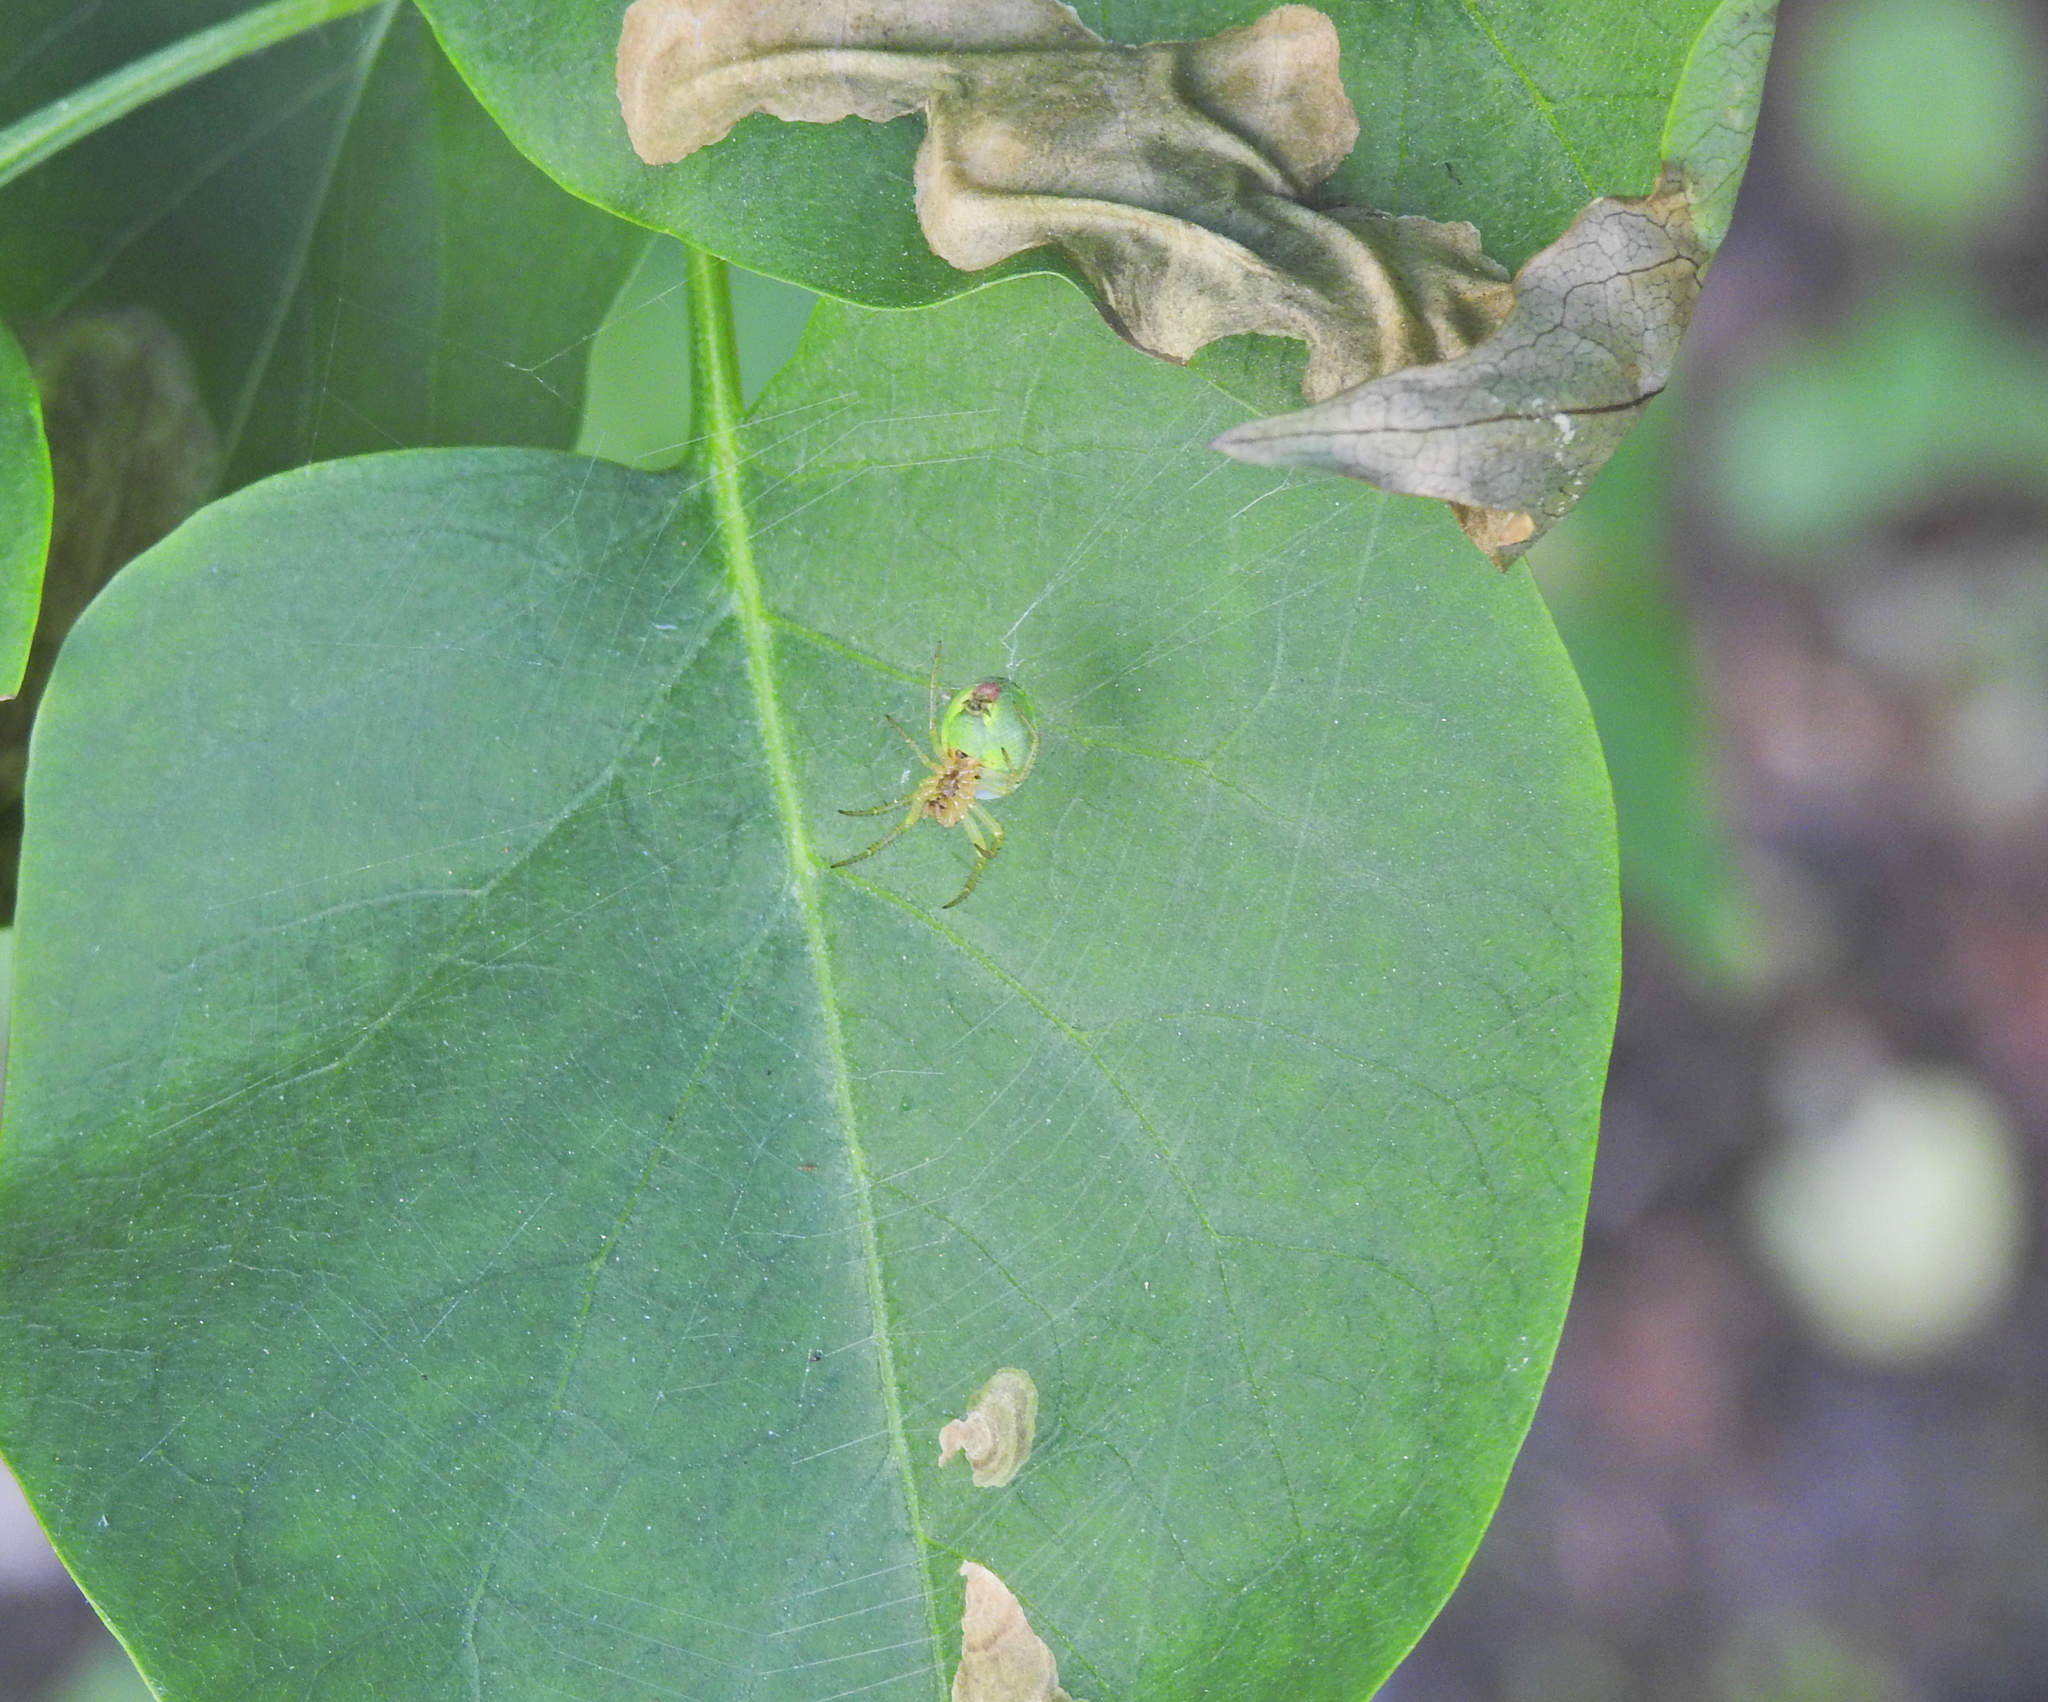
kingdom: Animalia
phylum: Arthropoda
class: Arachnida
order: Araneae
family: Araneidae
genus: Araniella
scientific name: Araniella
